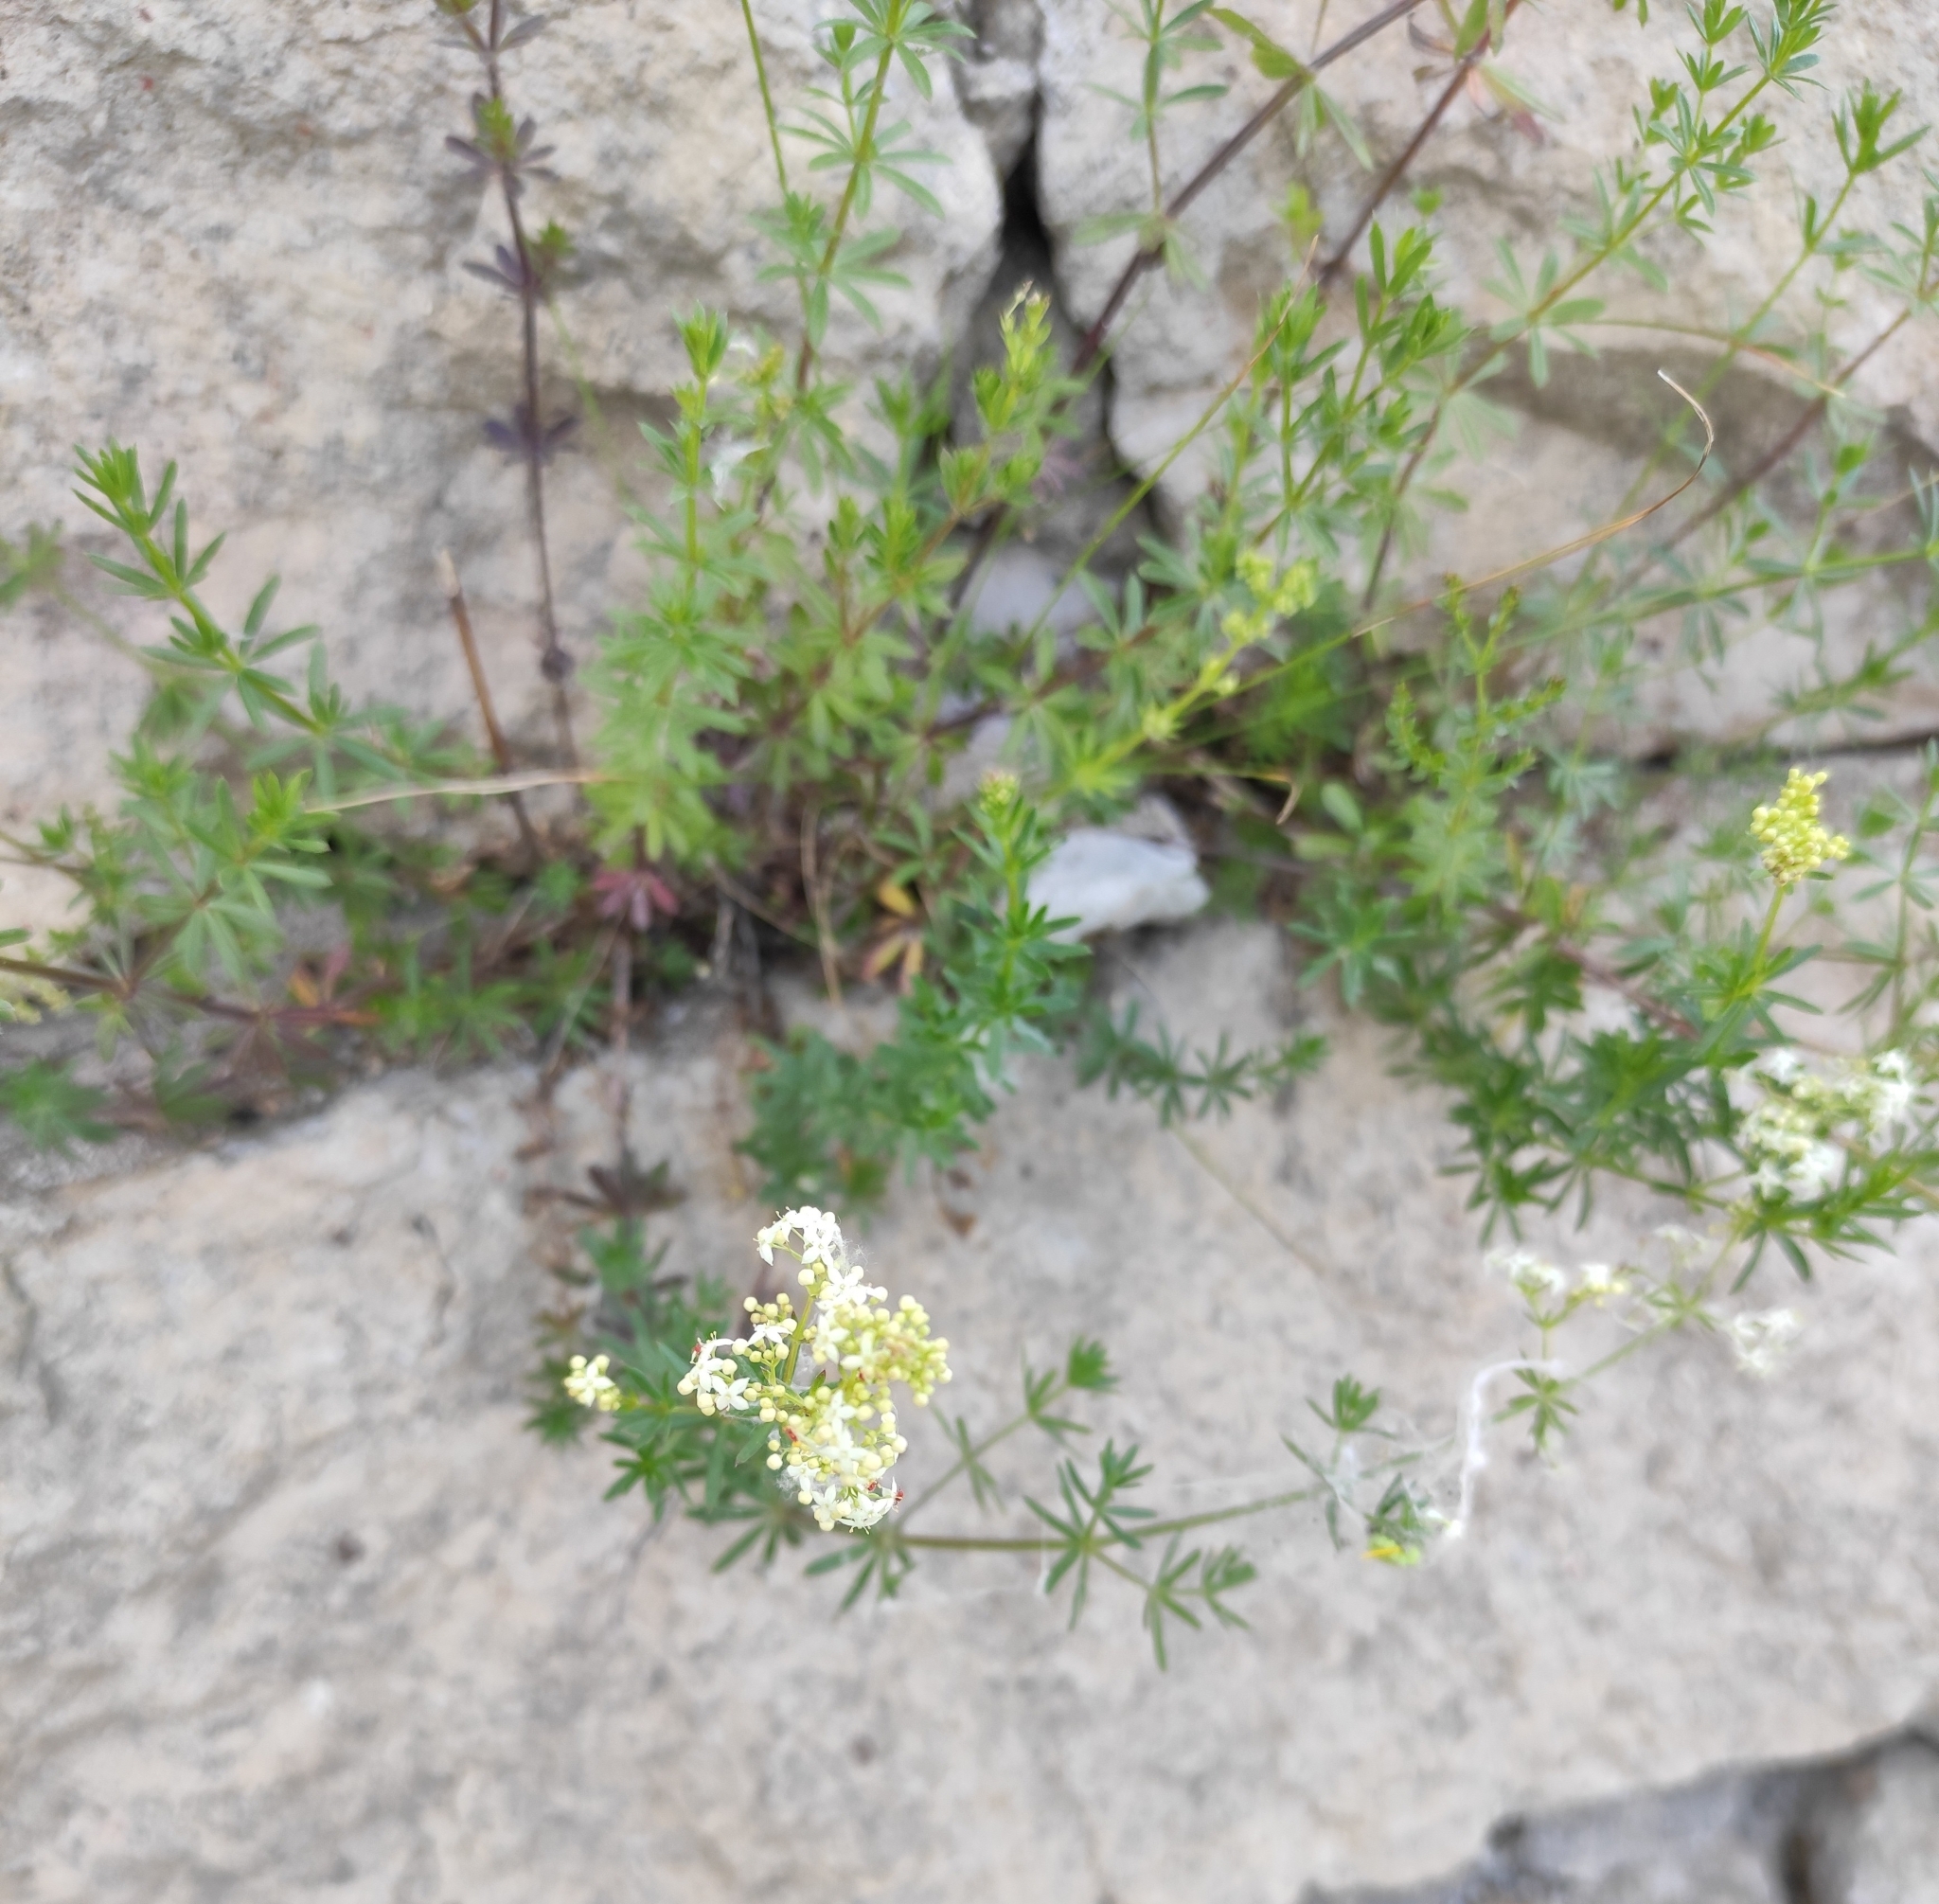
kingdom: Plantae
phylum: Tracheophyta
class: Magnoliopsida
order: Gentianales
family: Rubiaceae
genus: Galium
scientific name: Galium mollugo
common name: Hedge bedstraw
